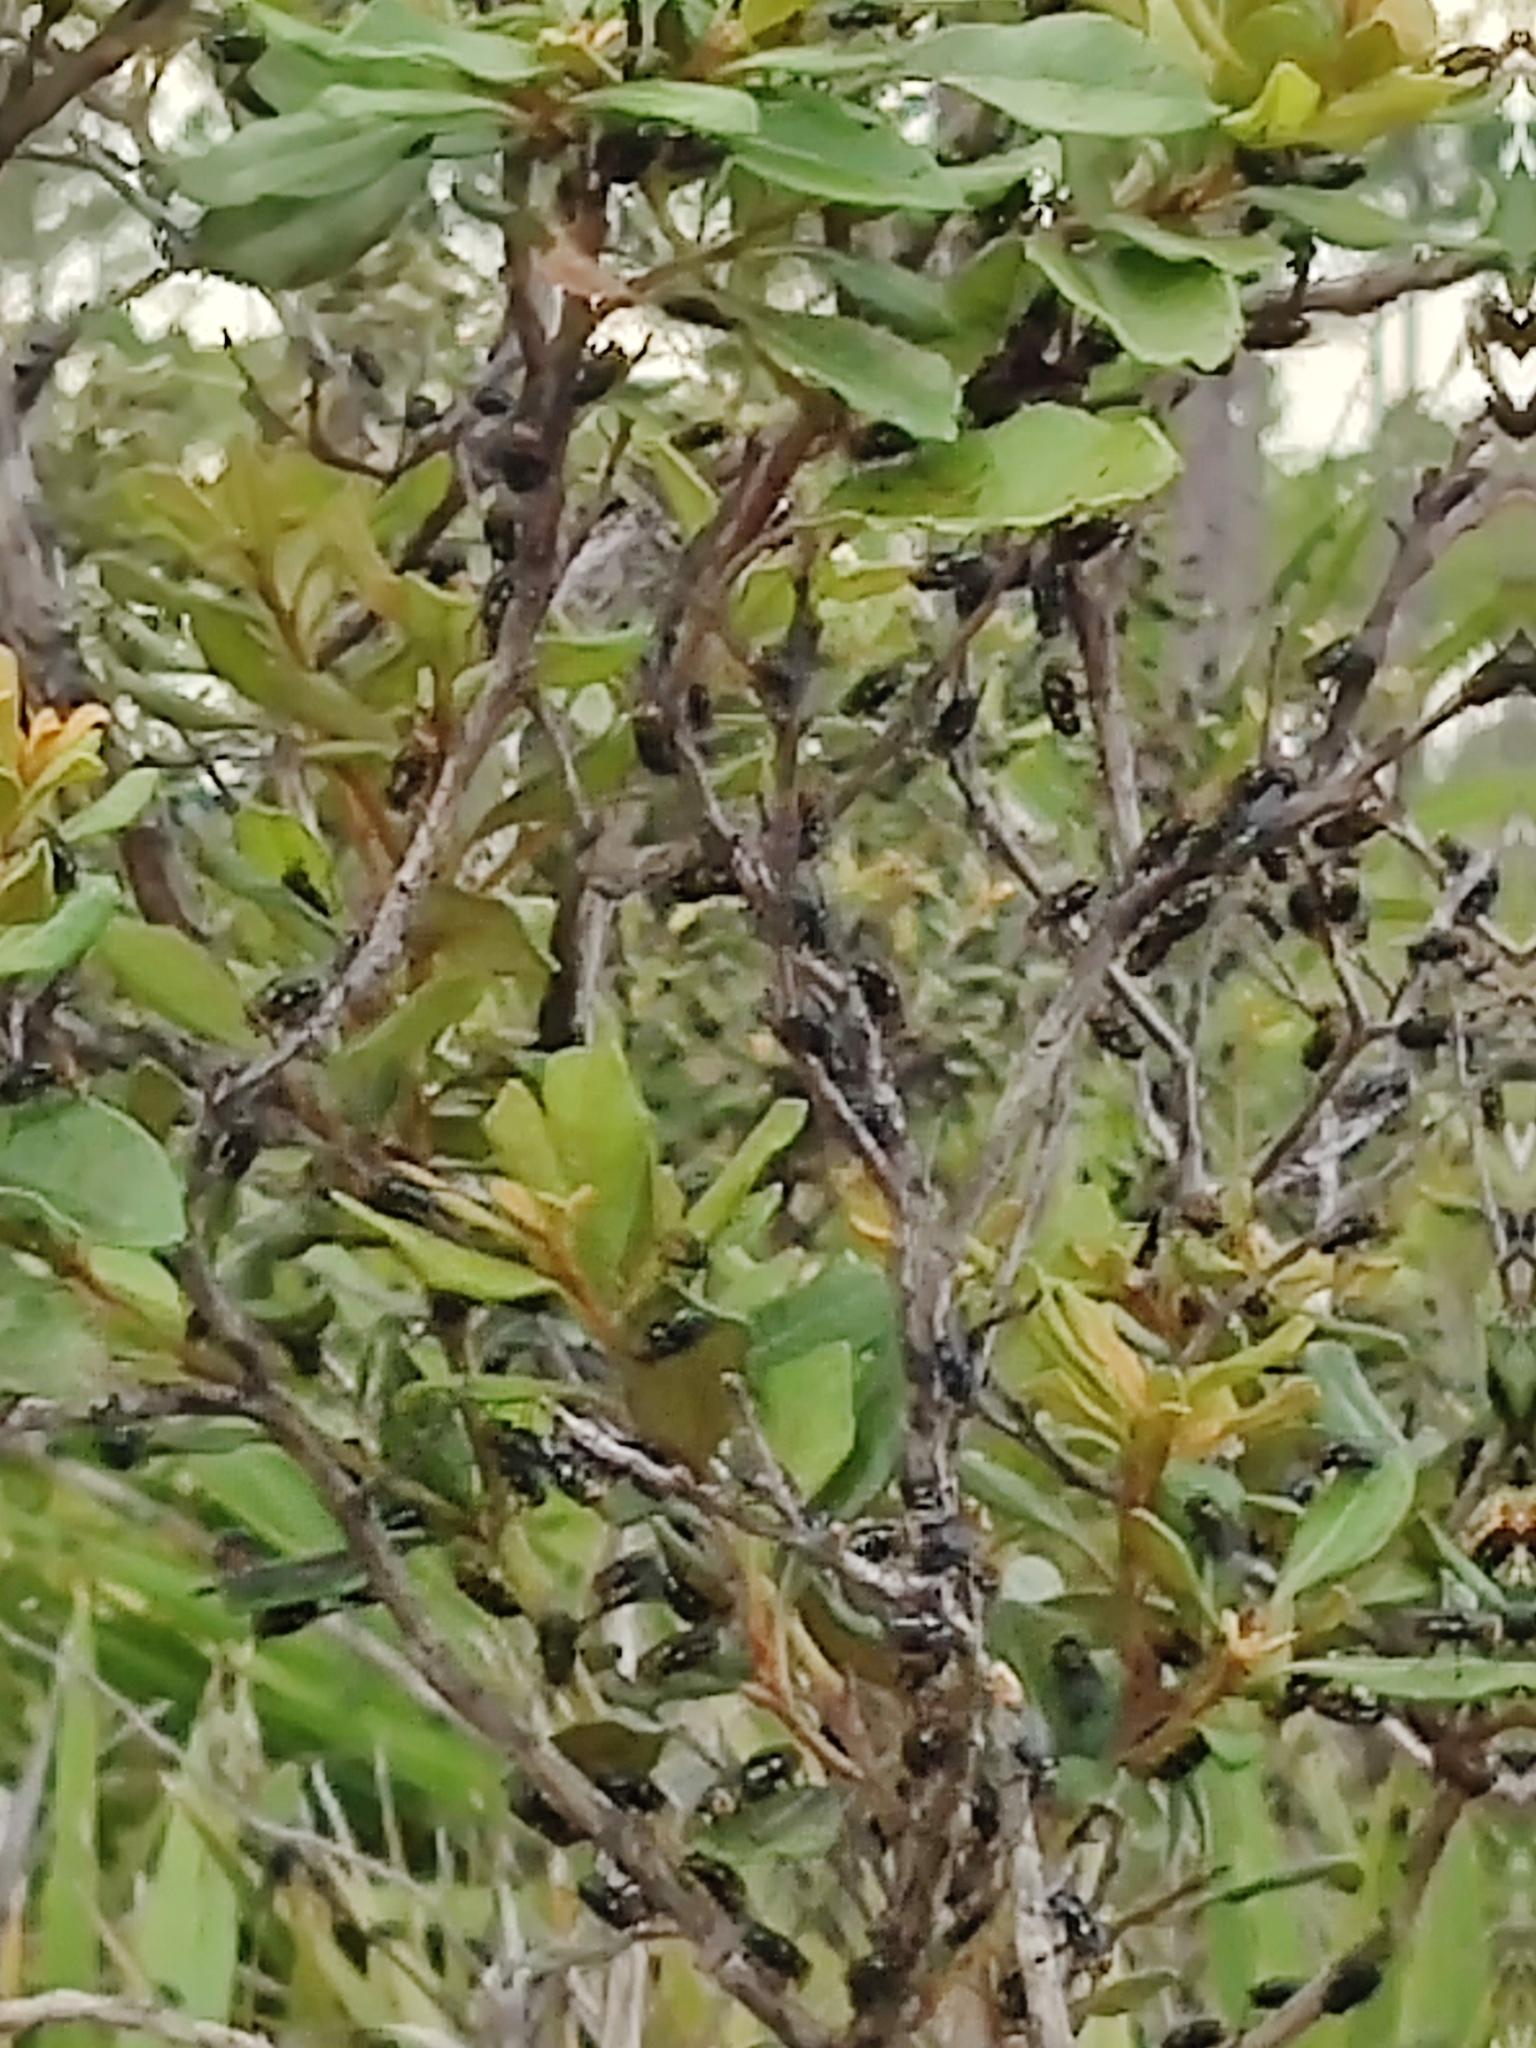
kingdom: Animalia
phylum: Arthropoda
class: Insecta
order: Diptera
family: Calliphoridae
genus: Cochliomyia
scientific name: Cochliomyia macellaria
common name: Secondary screwworm
